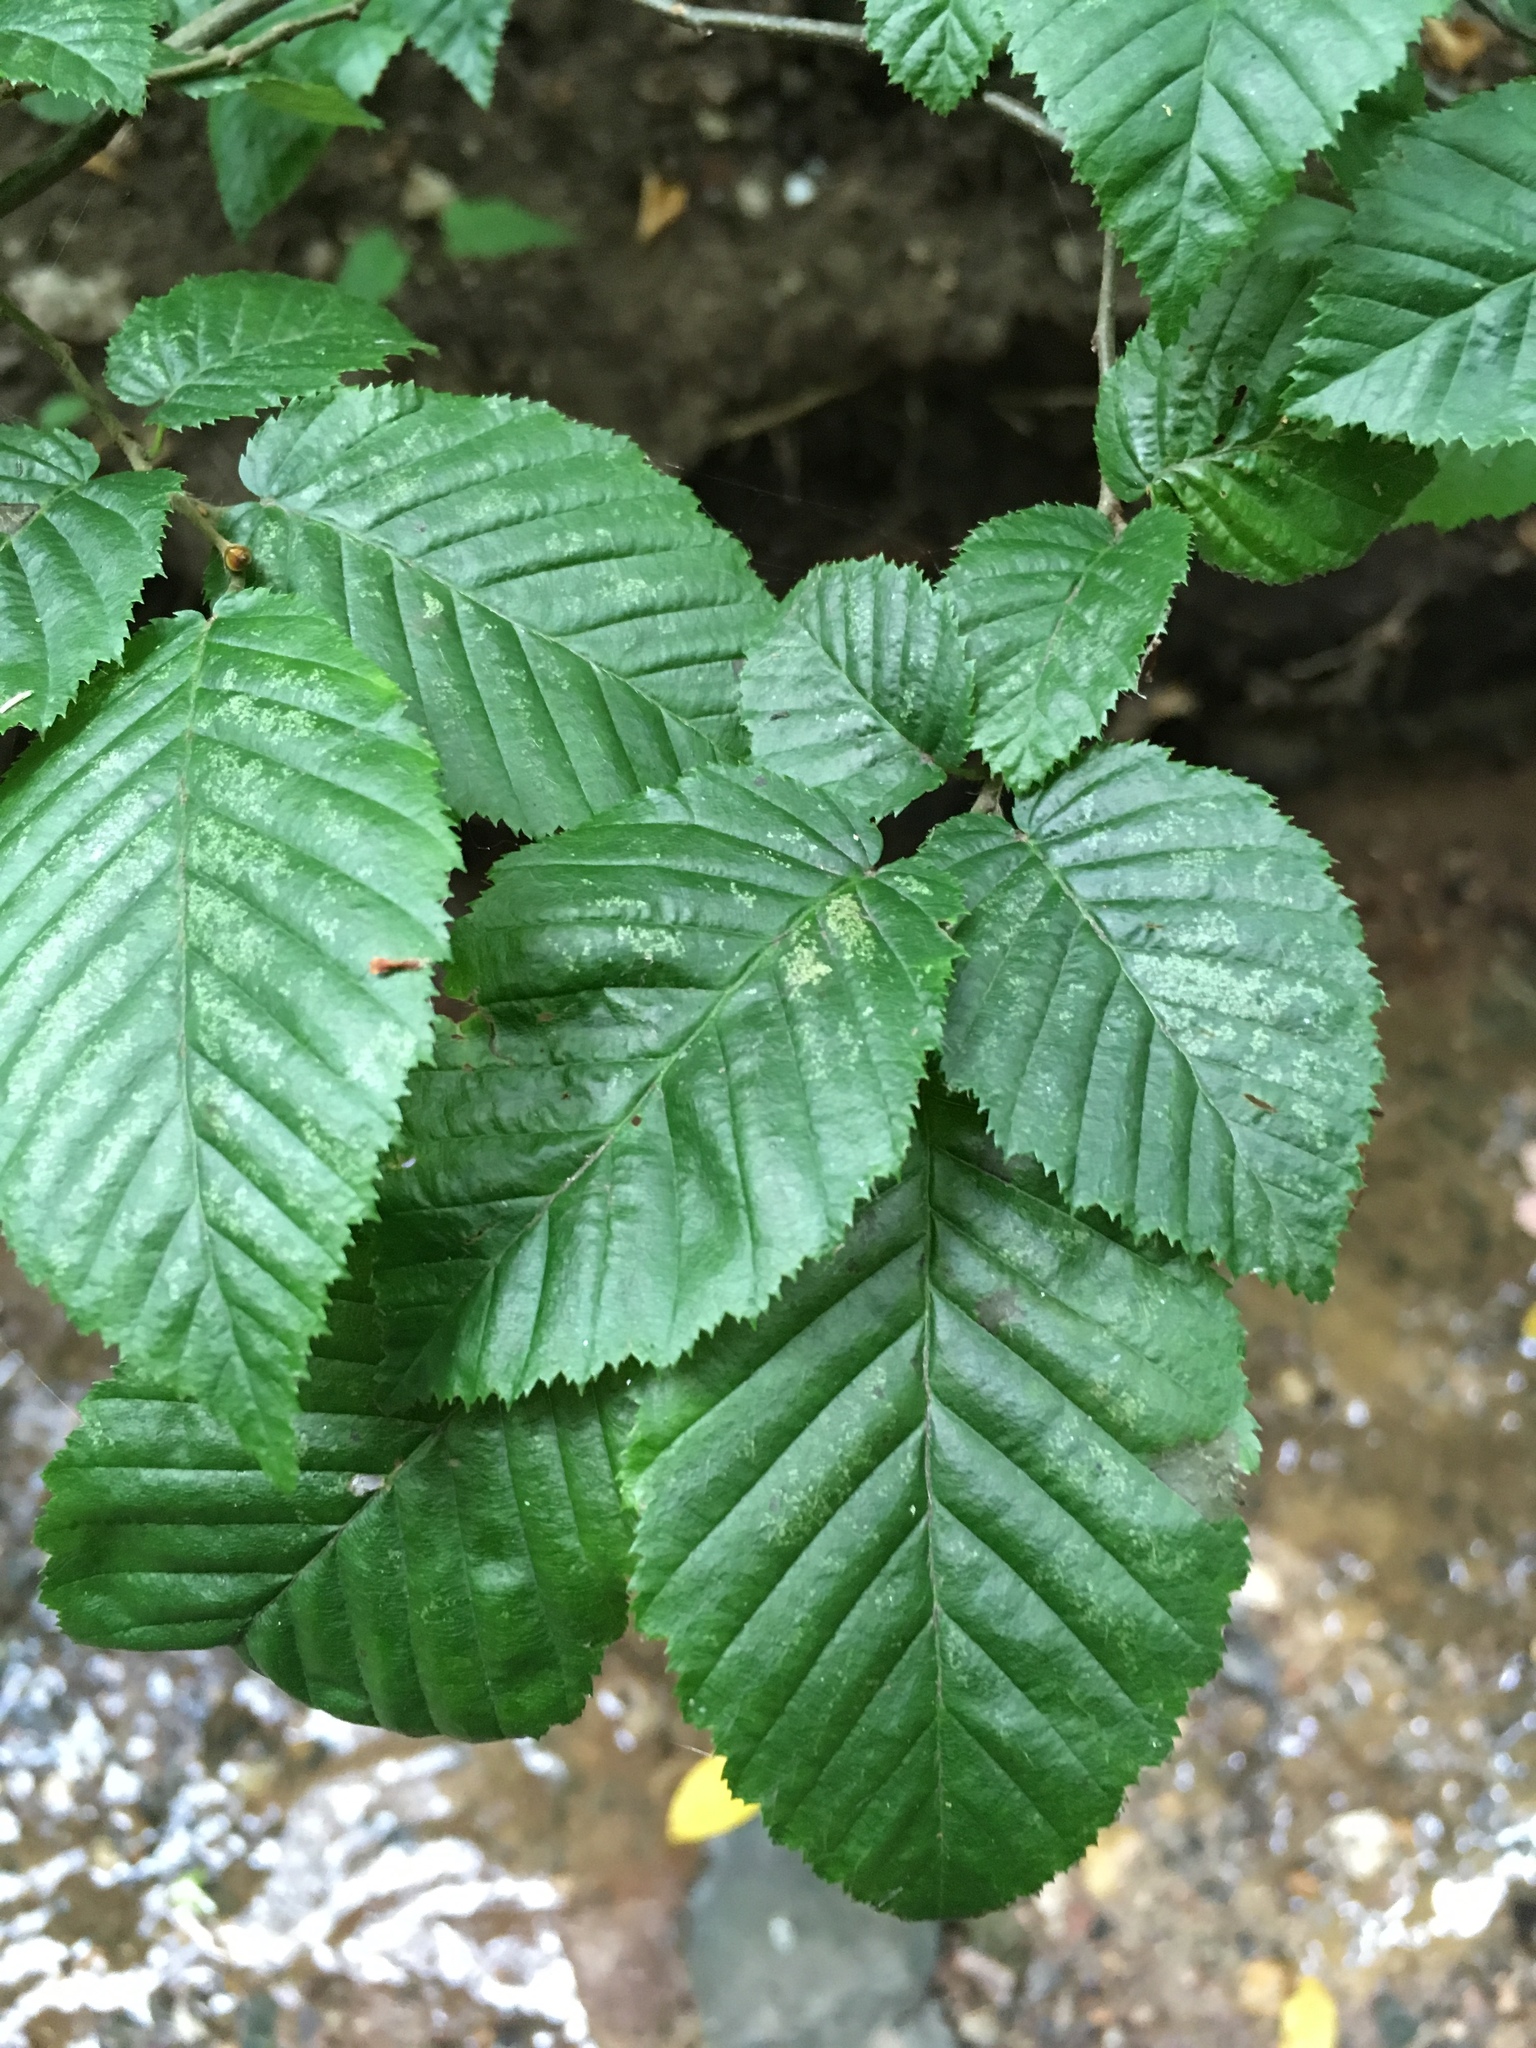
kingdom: Plantae
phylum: Tracheophyta
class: Magnoliopsida
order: Fagales
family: Betulaceae
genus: Carpinus
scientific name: Carpinus betulus
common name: Hornbeam
